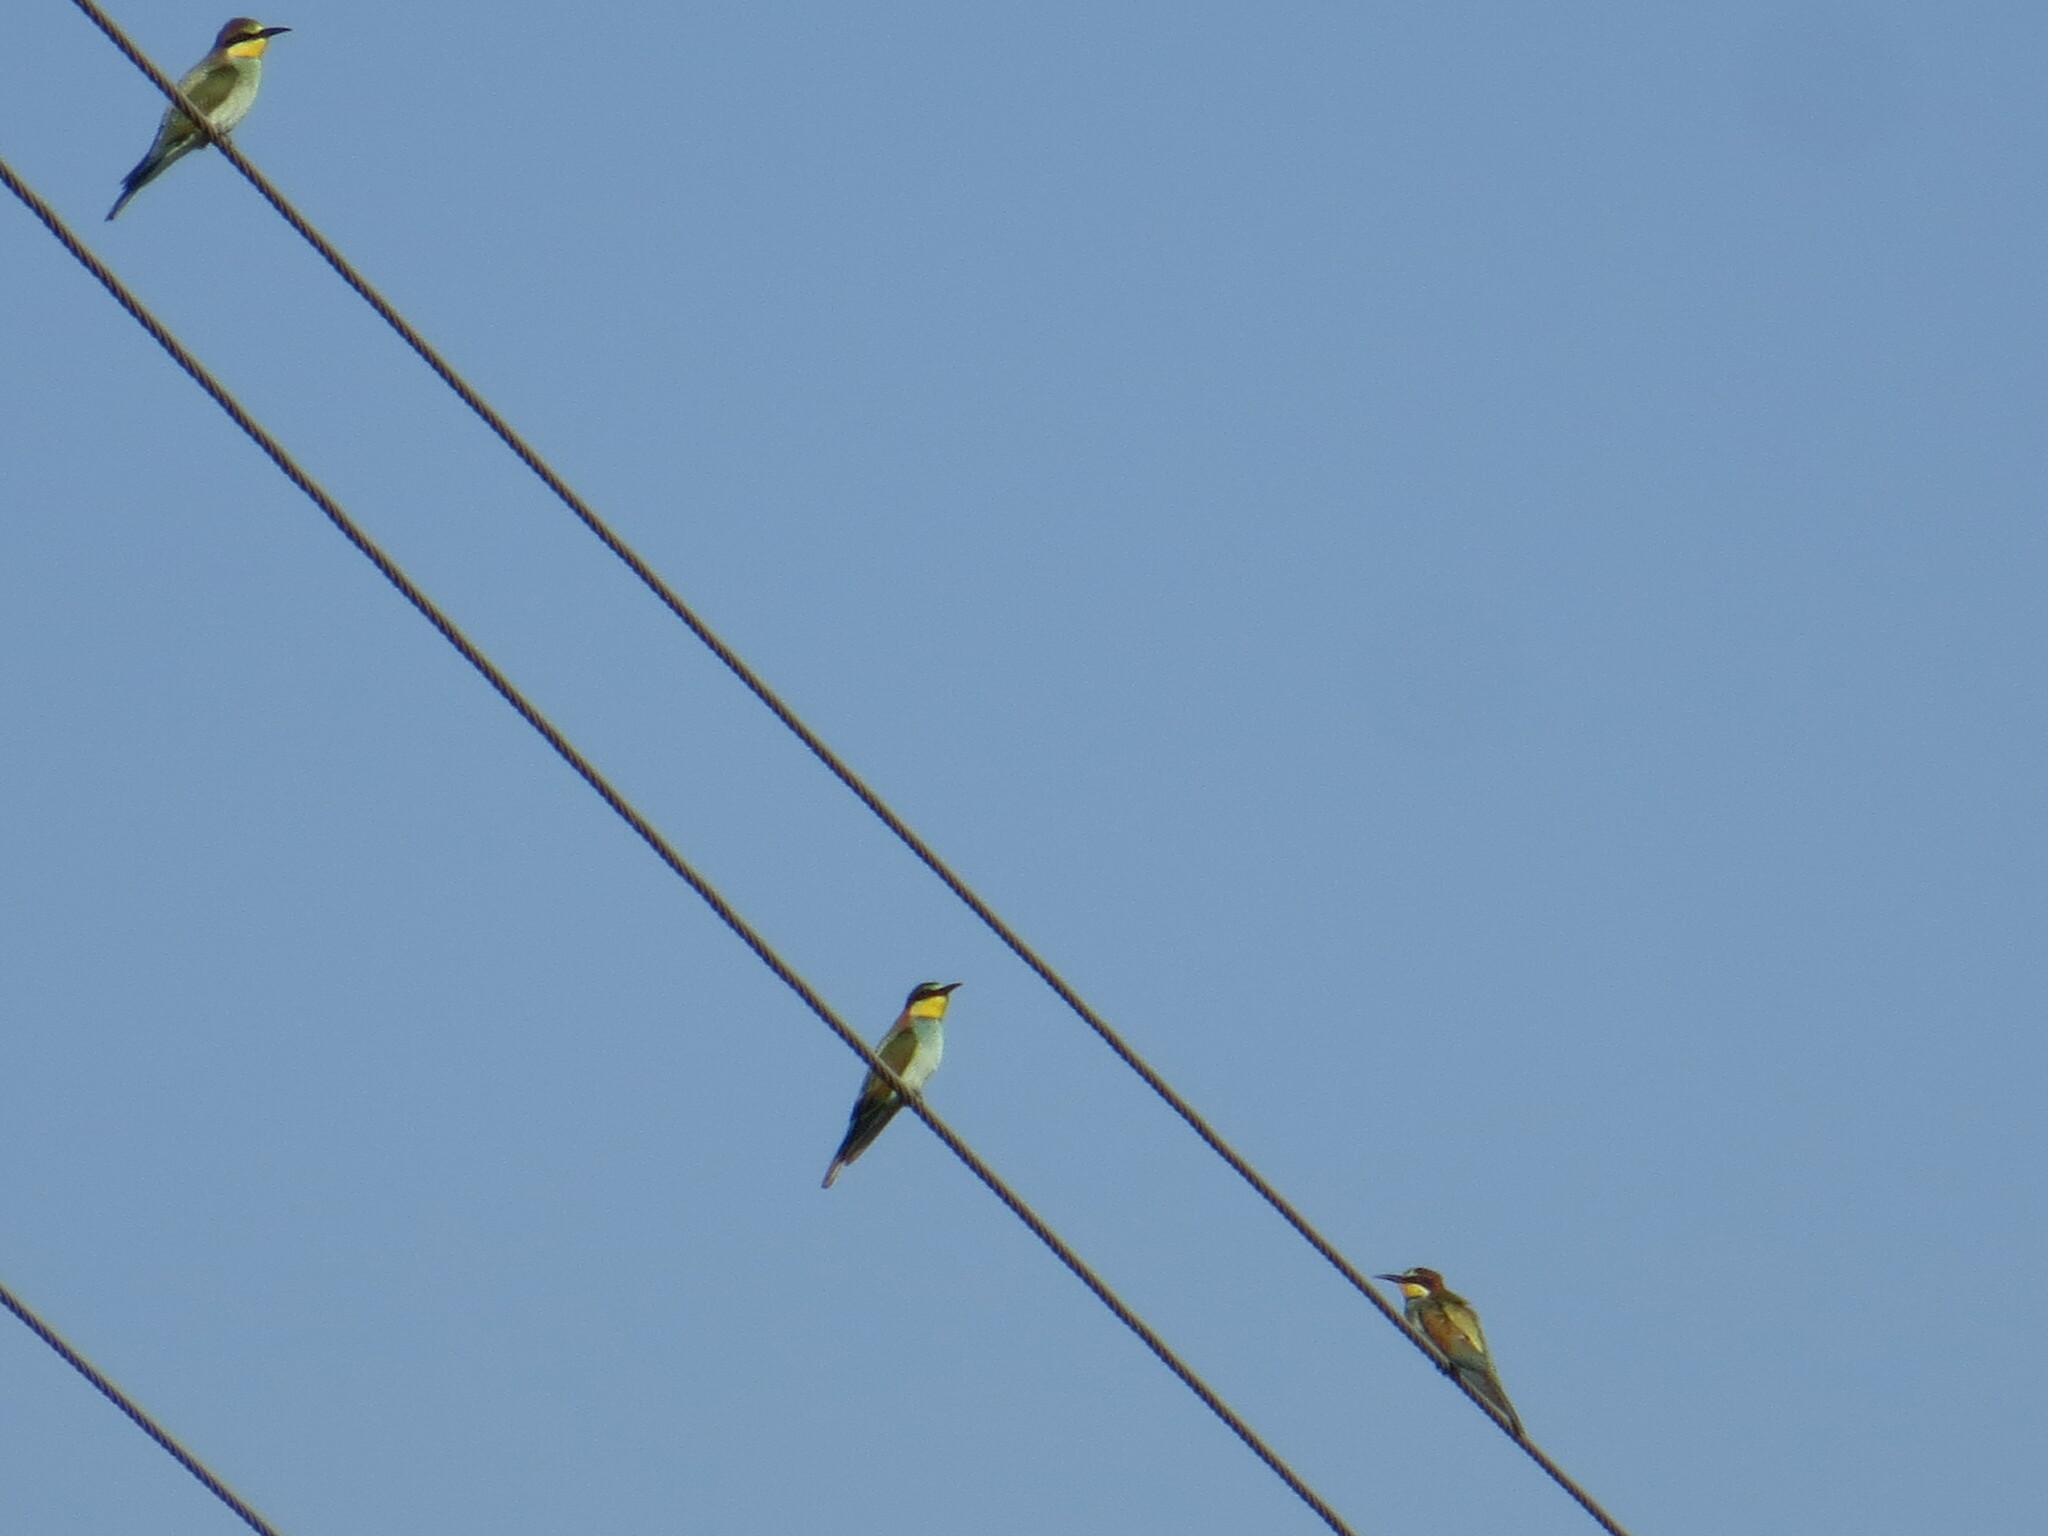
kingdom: Animalia
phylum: Chordata
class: Aves
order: Coraciiformes
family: Meropidae
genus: Merops
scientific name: Merops apiaster
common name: European bee-eater
